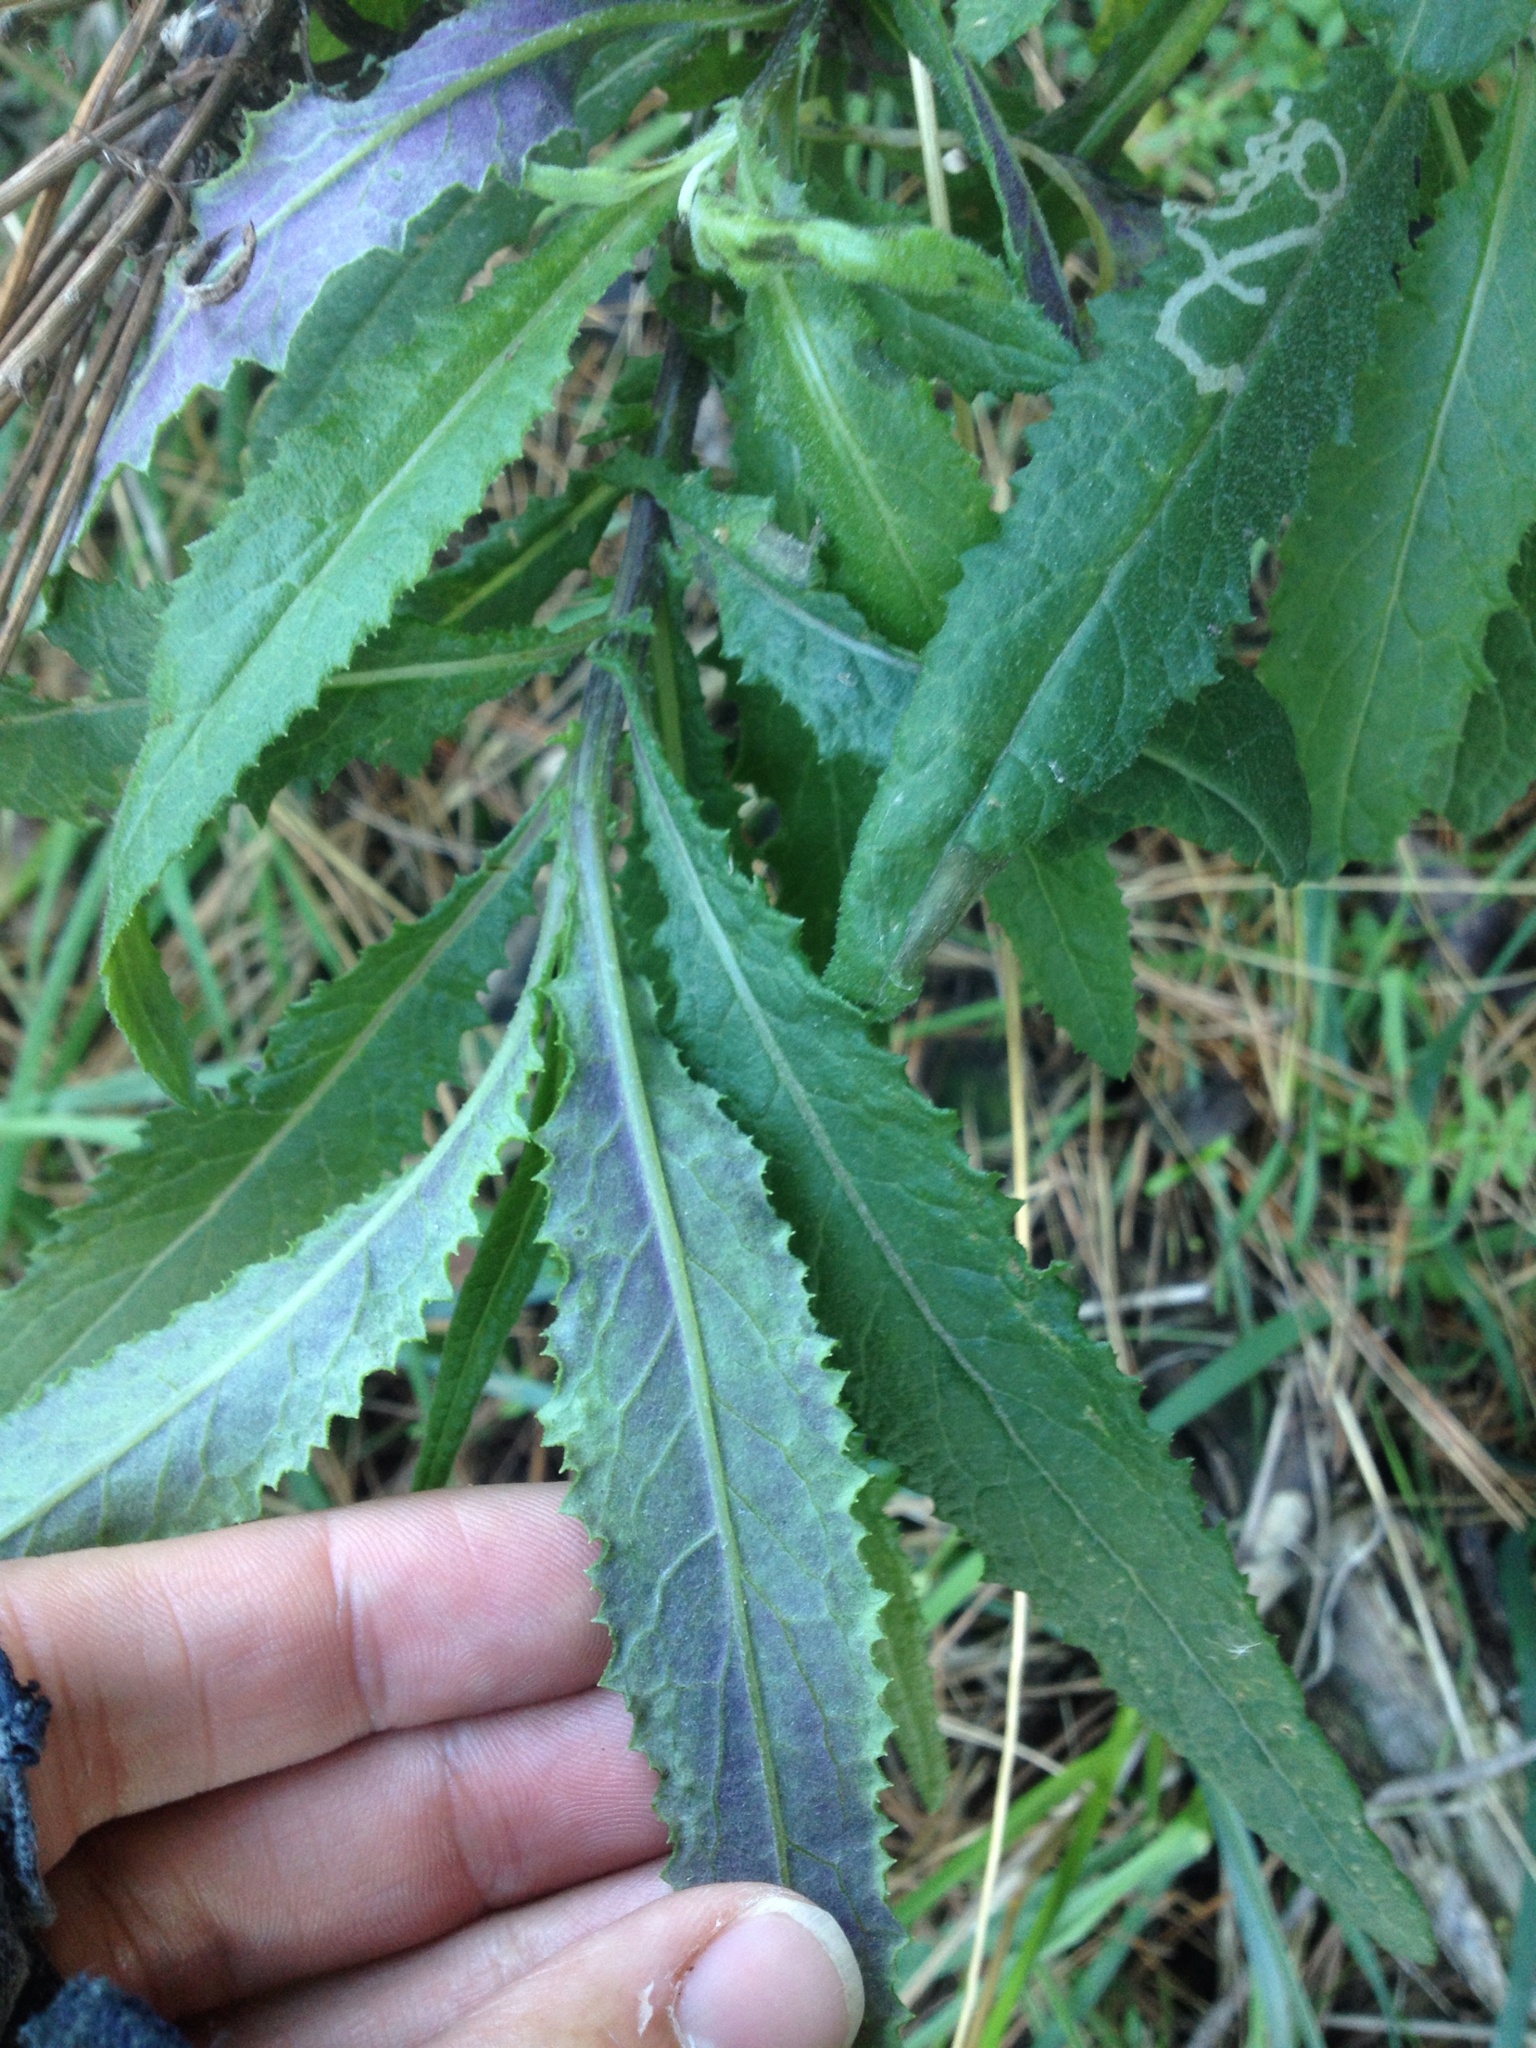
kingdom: Plantae
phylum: Tracheophyta
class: Magnoliopsida
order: Asterales
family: Asteraceae
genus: Senecio
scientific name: Senecio minimus
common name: Toothed fireweed
